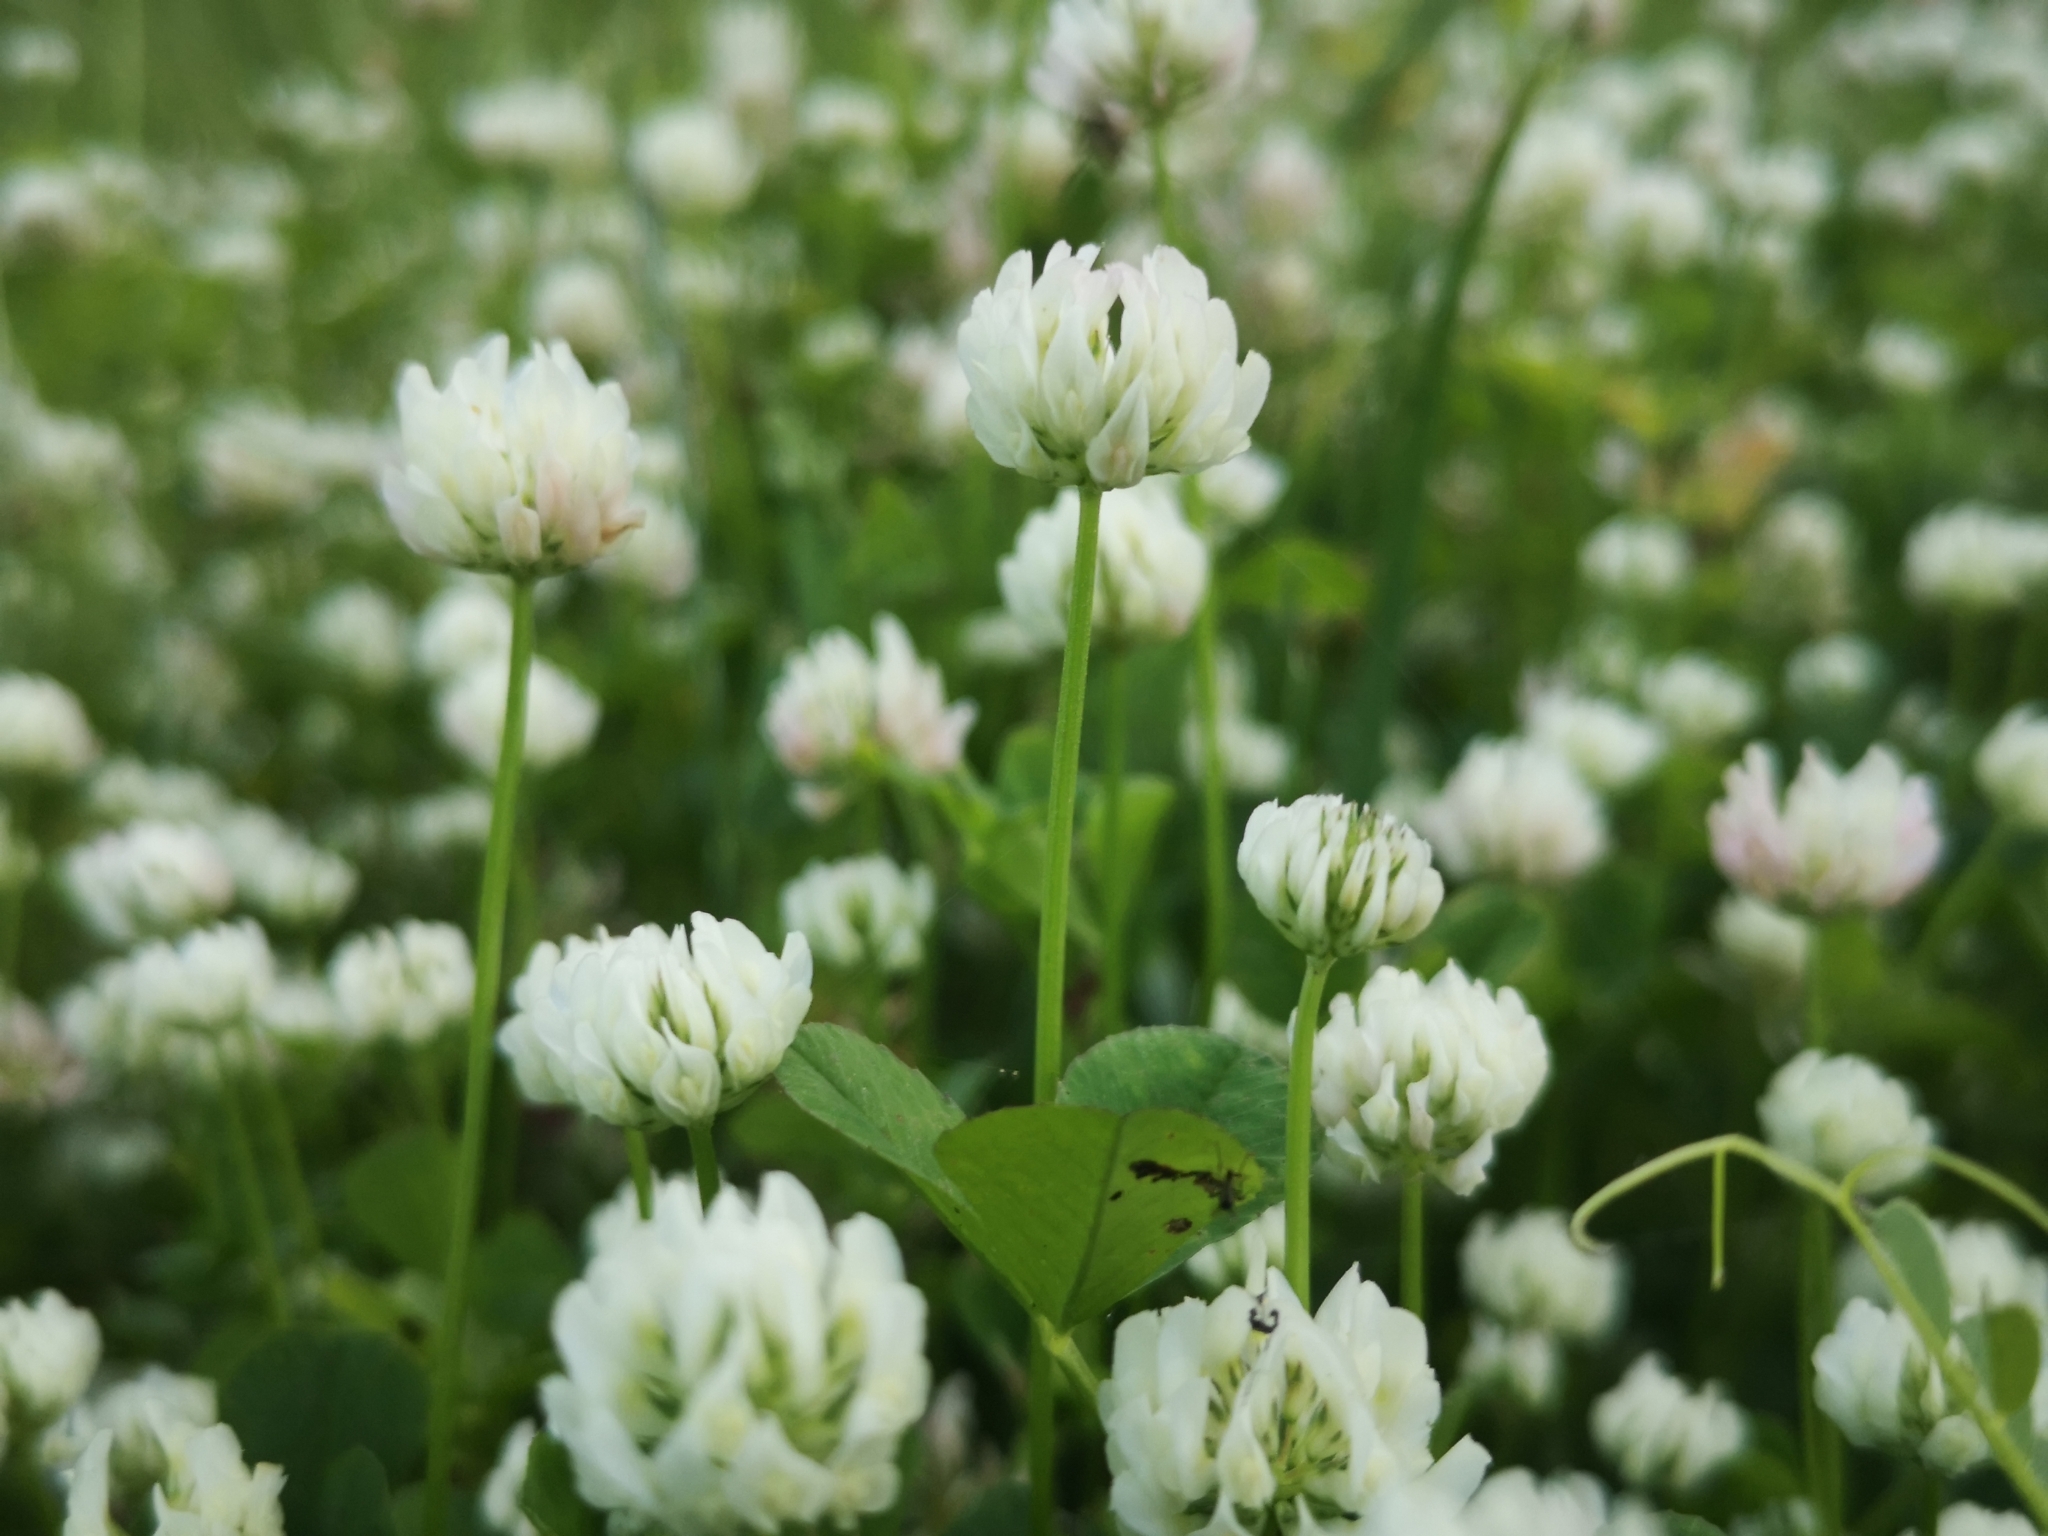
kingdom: Plantae
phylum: Tracheophyta
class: Magnoliopsida
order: Fabales
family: Fabaceae
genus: Trifolium
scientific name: Trifolium nigrescens
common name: Small white clover
